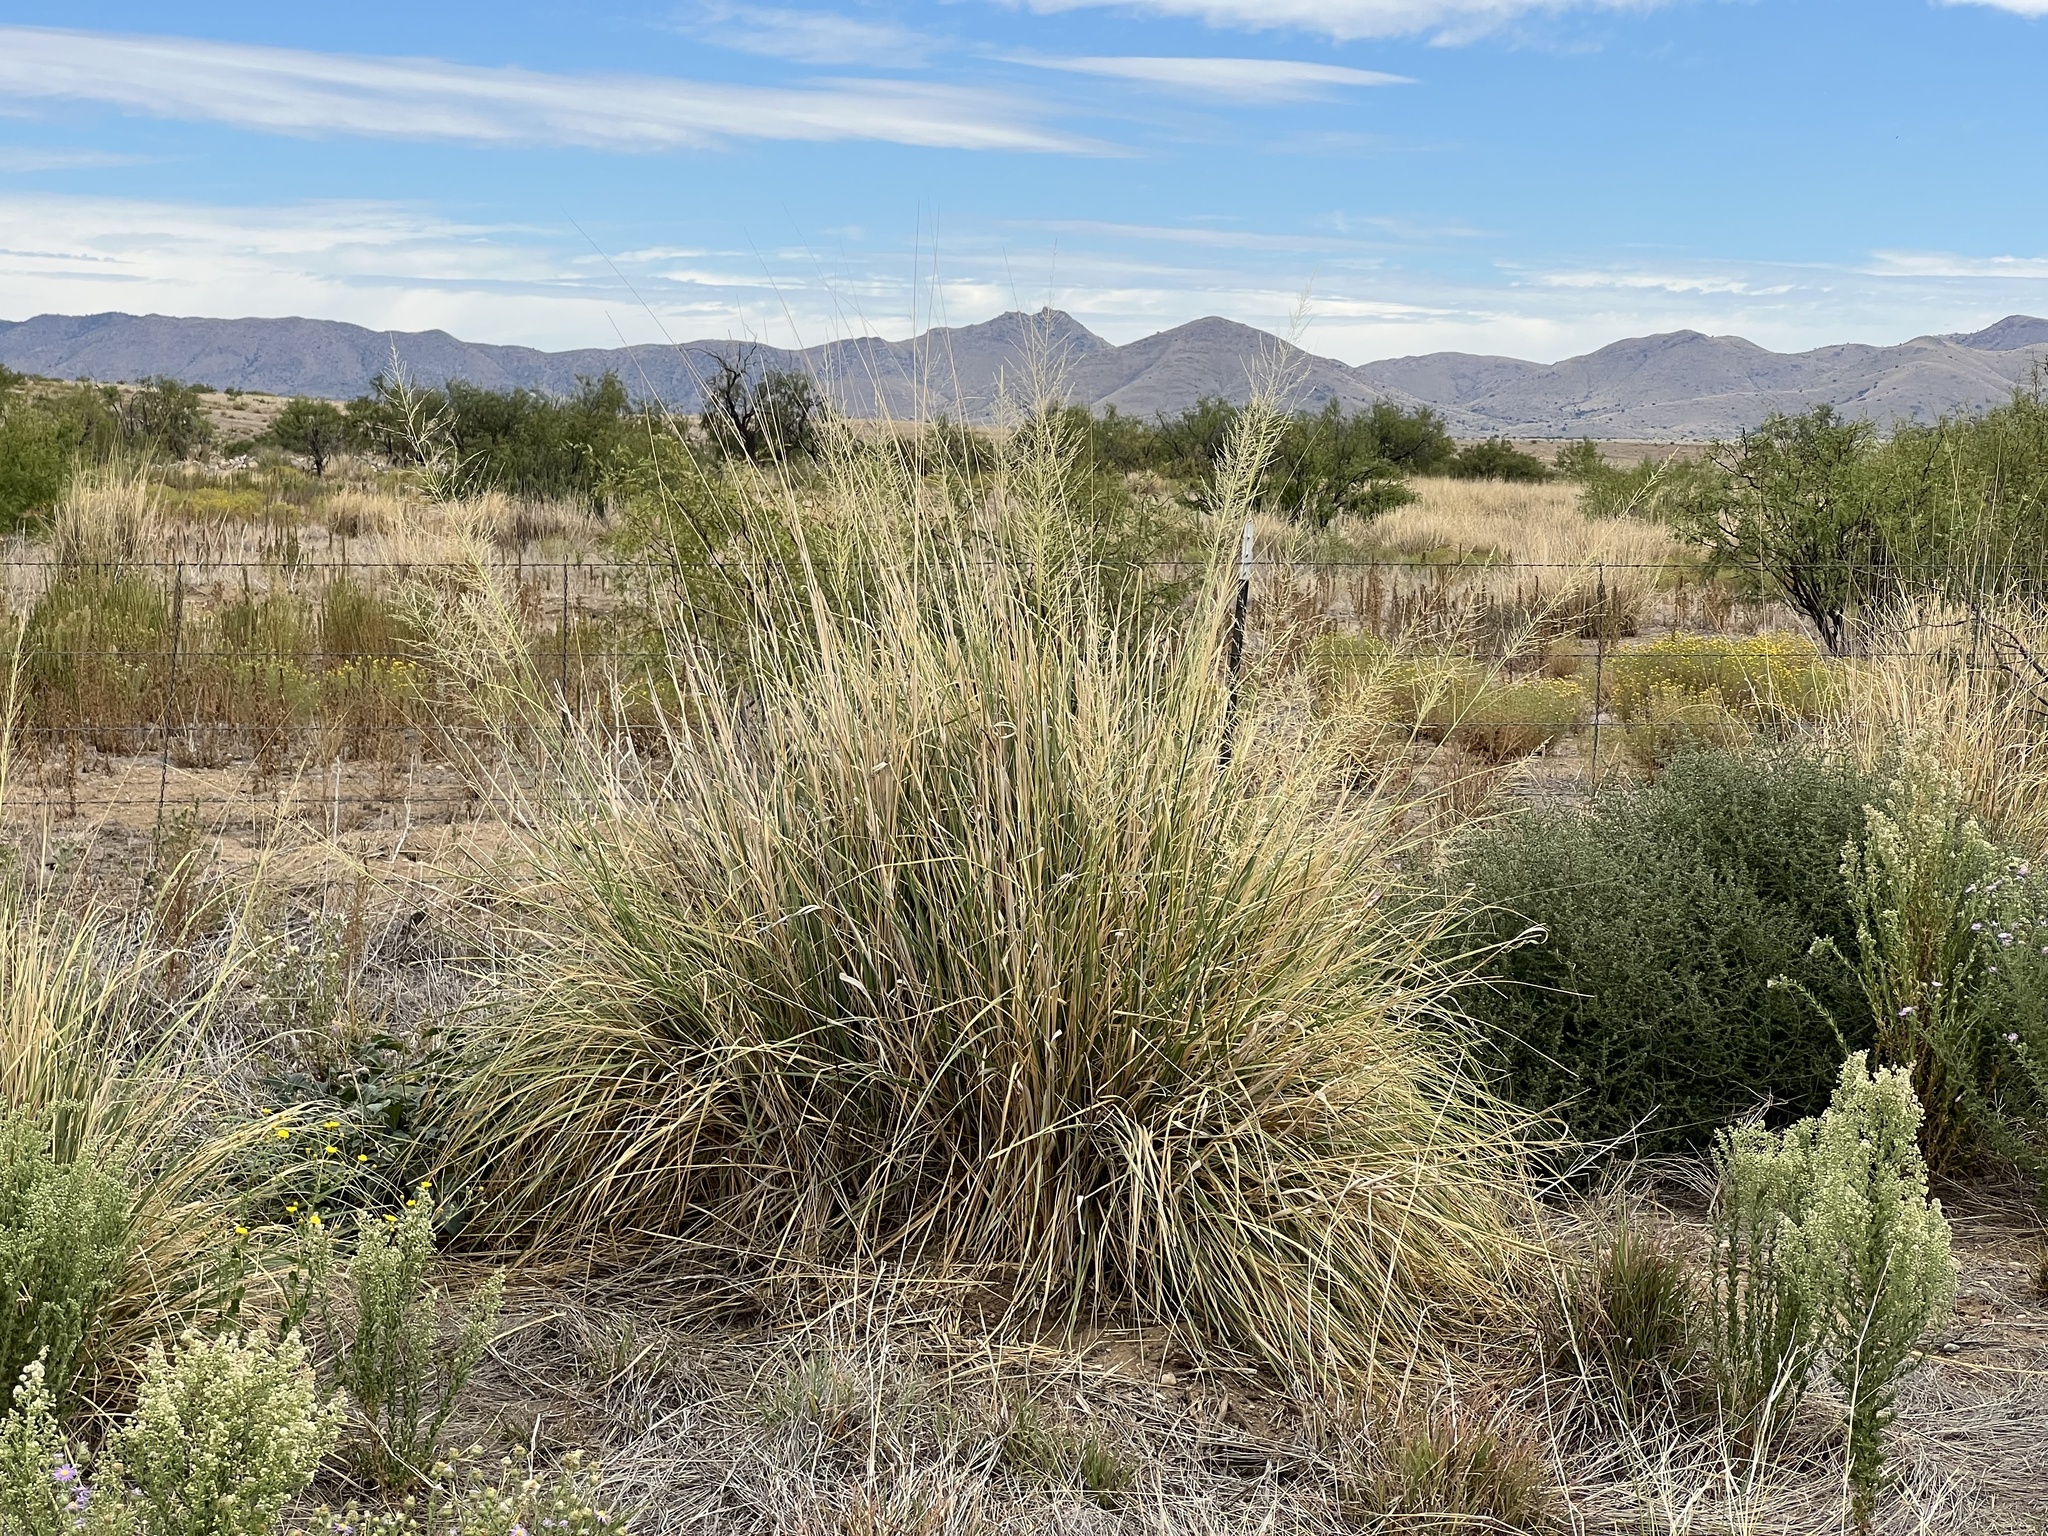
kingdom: Plantae
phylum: Tracheophyta
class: Liliopsida
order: Poales
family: Poaceae
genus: Sporobolus
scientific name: Sporobolus wrightii
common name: Big alkali sacaton
